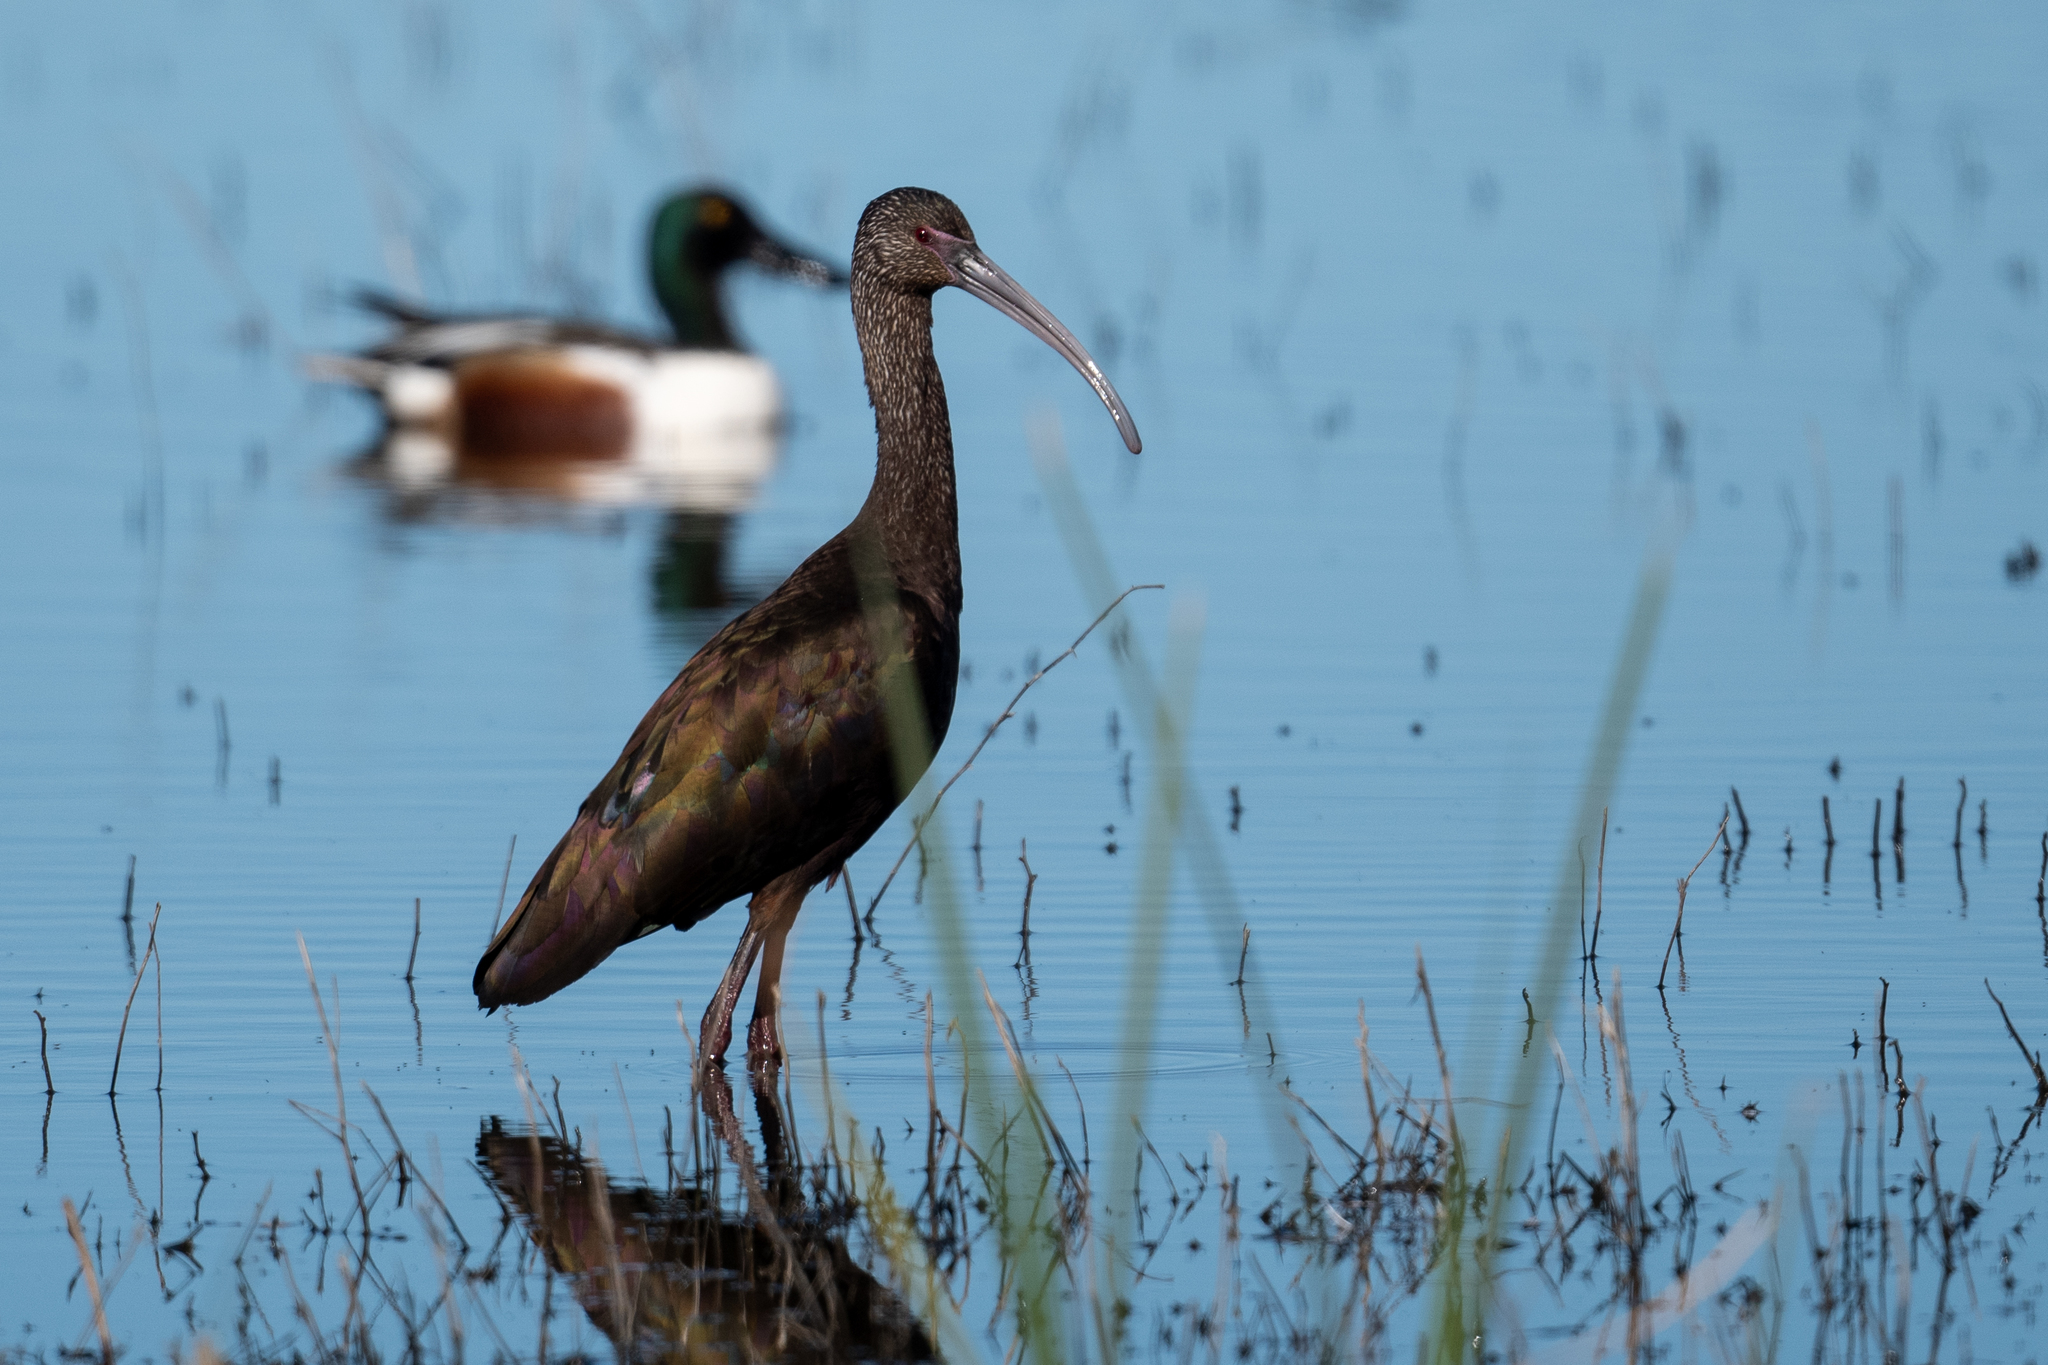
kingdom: Animalia
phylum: Chordata
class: Aves
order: Pelecaniformes
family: Threskiornithidae
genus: Plegadis
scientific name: Plegadis chihi
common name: White-faced ibis
